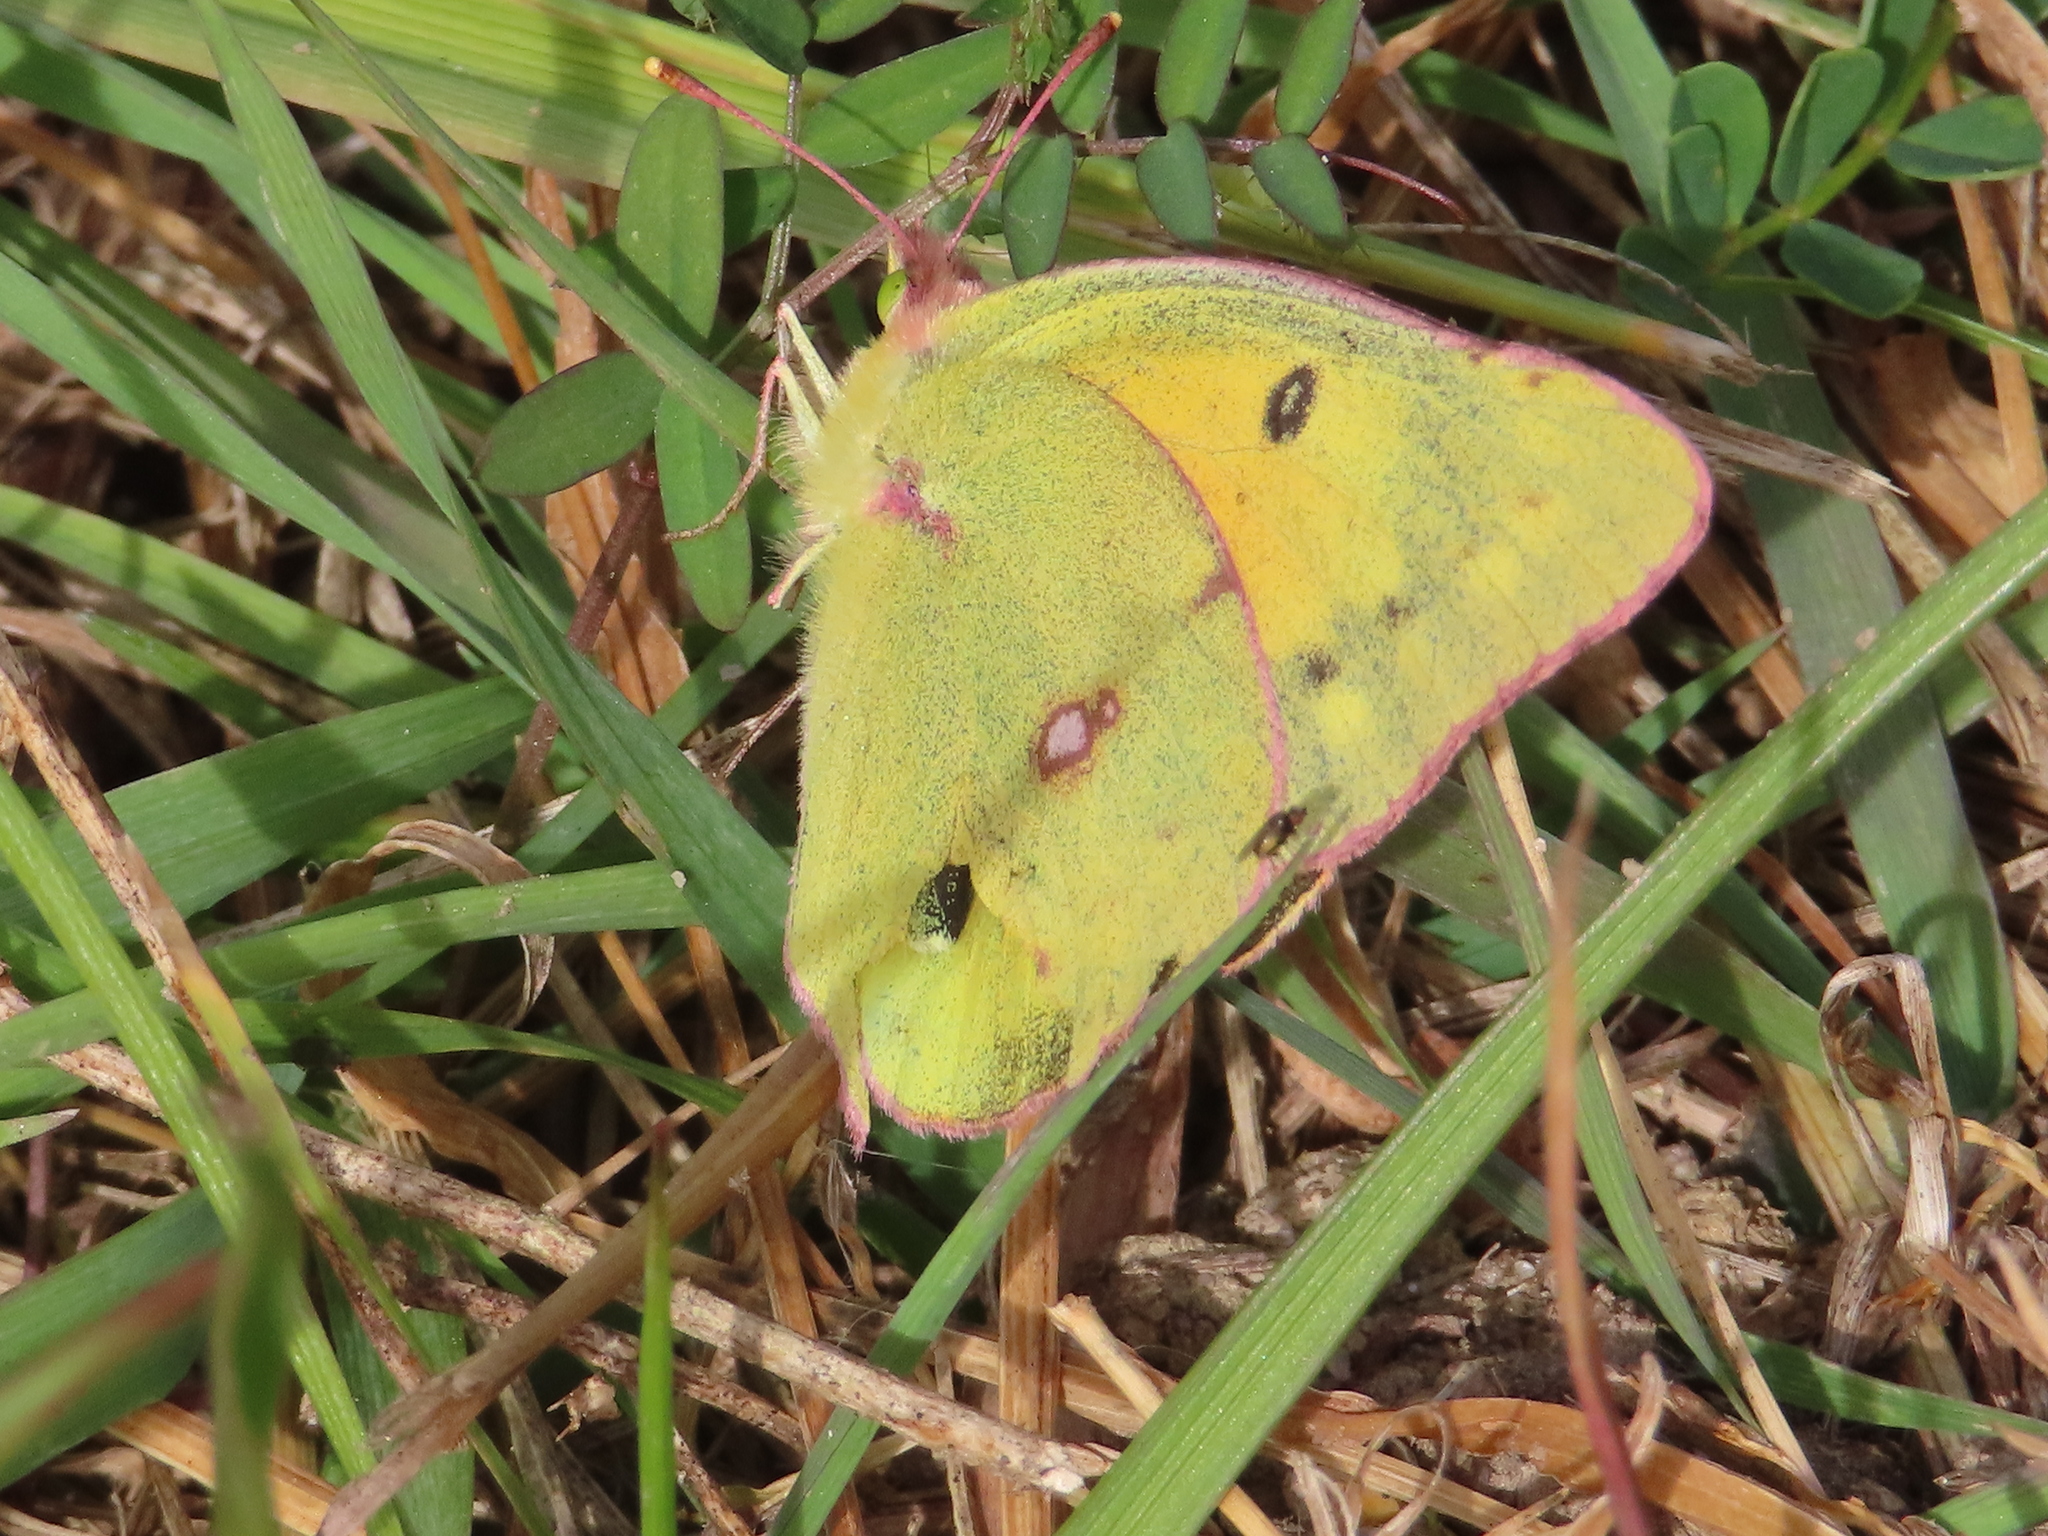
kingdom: Animalia
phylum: Arthropoda
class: Insecta
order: Lepidoptera
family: Pieridae
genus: Colias
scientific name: Colias eurytheme
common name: Alfalfa butterfly
